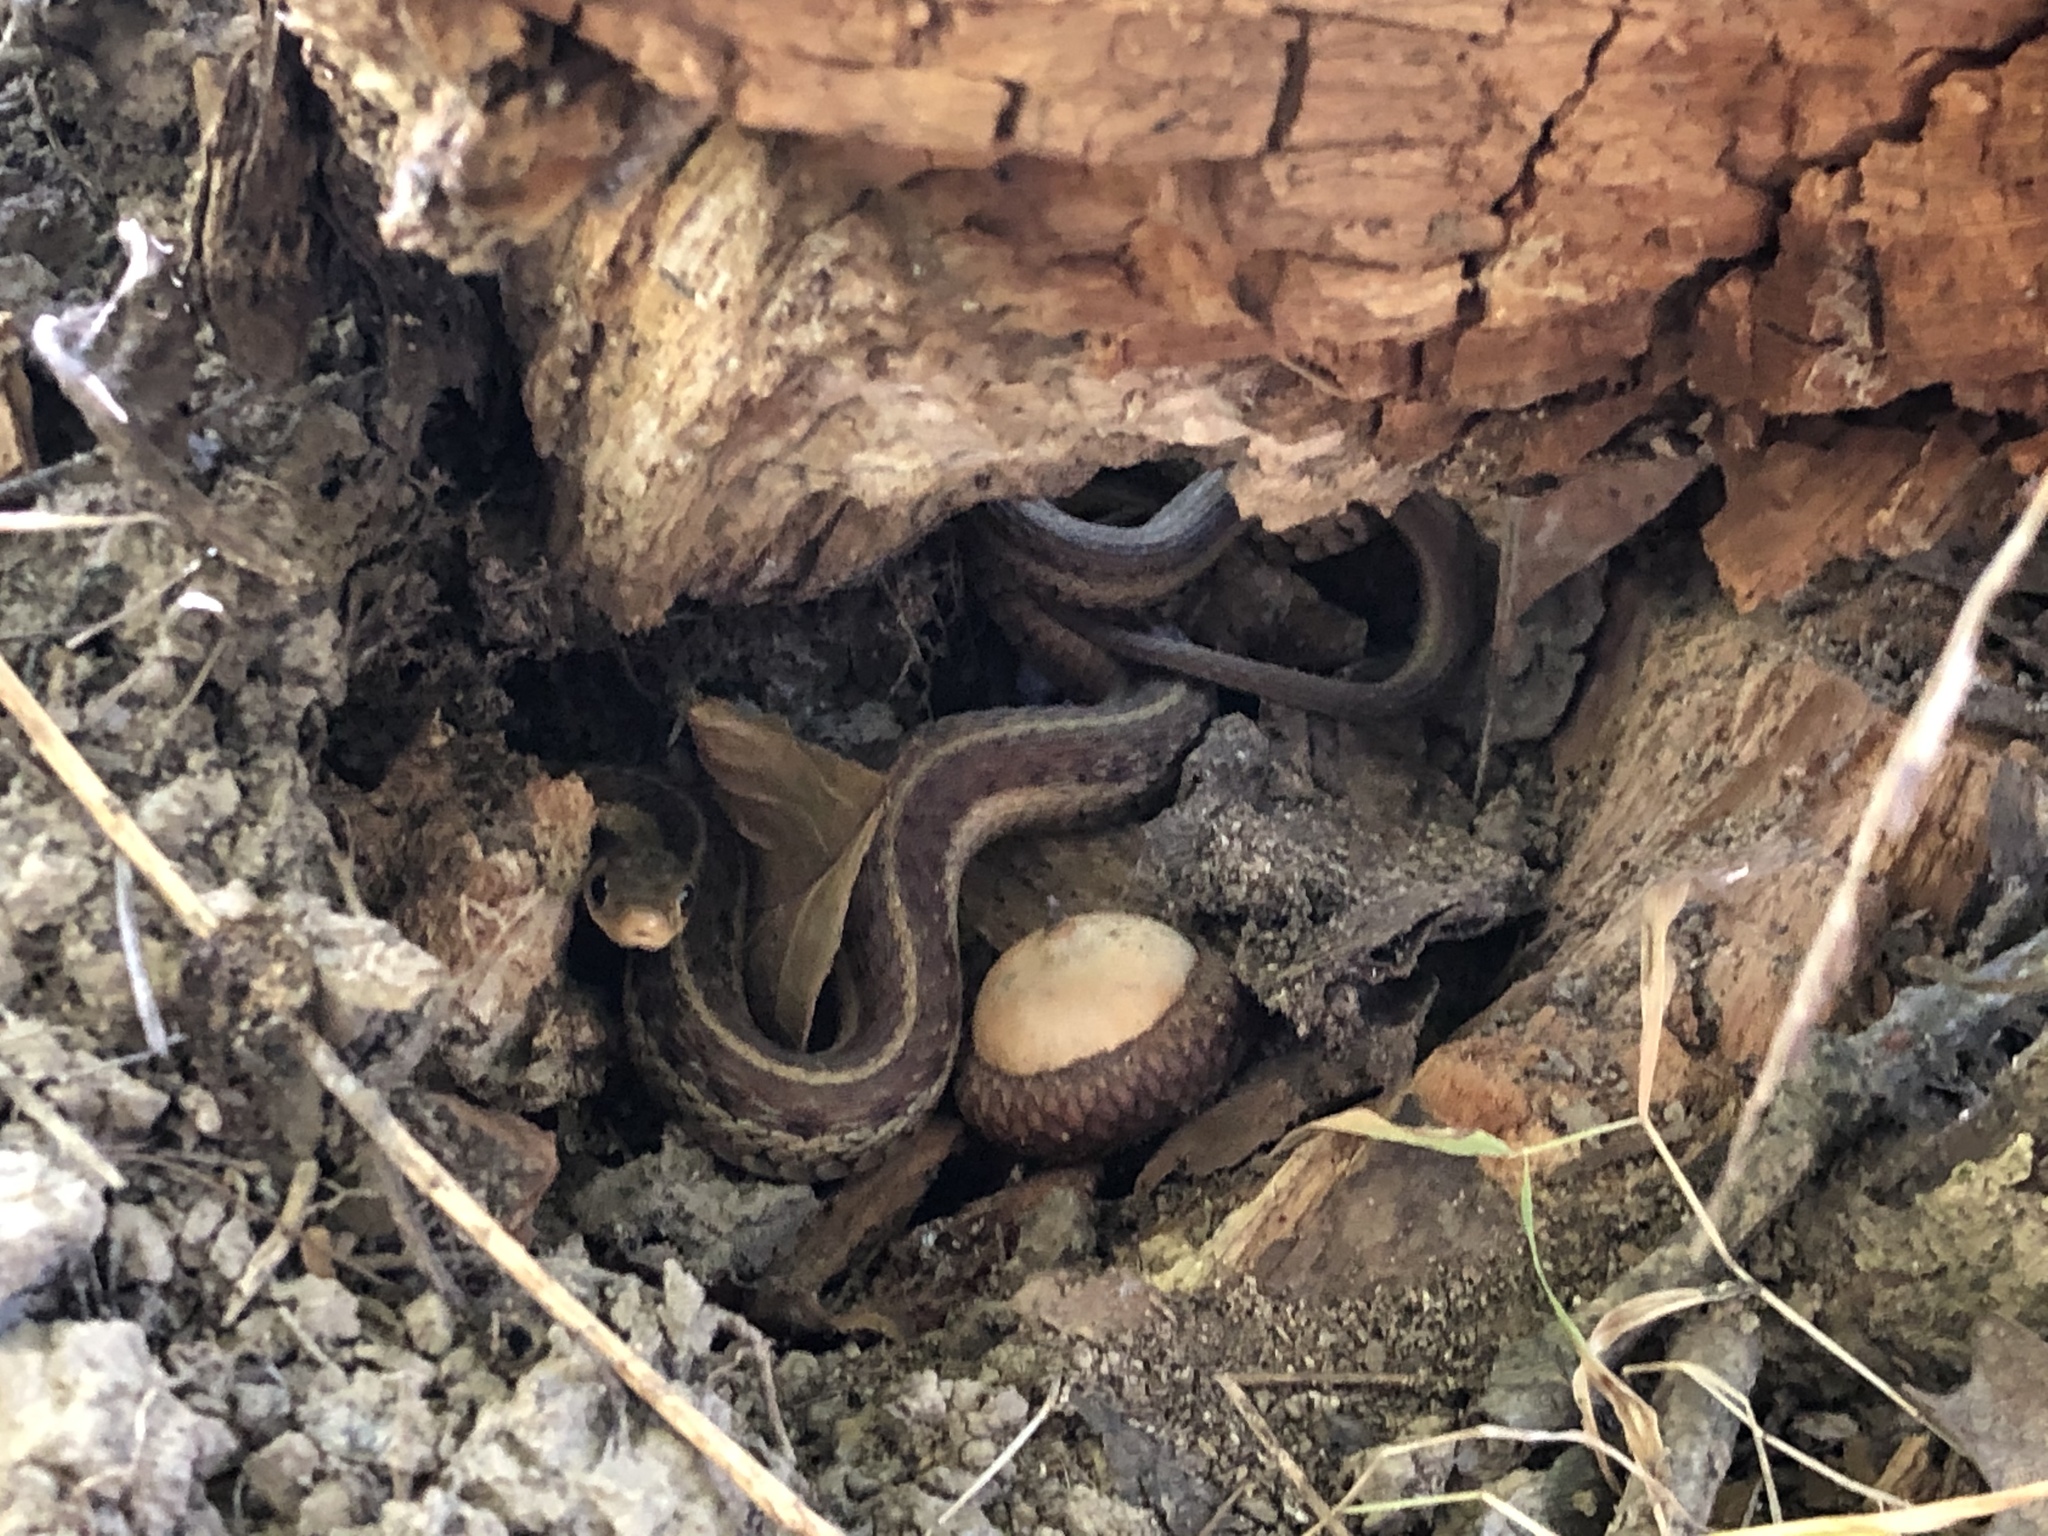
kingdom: Animalia
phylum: Chordata
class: Squamata
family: Colubridae
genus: Thamnophis
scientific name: Thamnophis sirtalis
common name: Common garter snake
